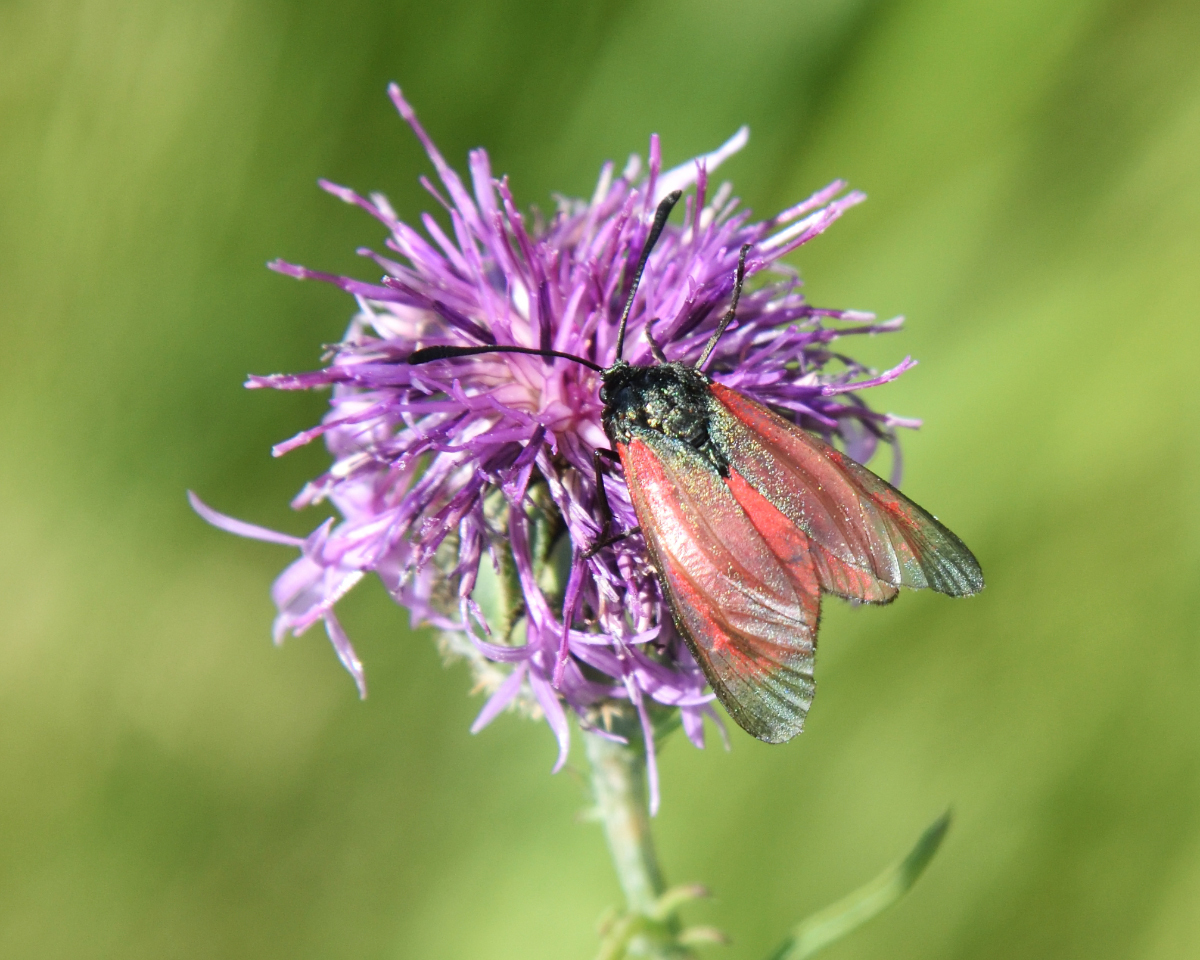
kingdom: Animalia
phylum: Arthropoda
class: Insecta
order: Lepidoptera
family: Zygaenidae
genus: Zygaena
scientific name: Zygaena minos
